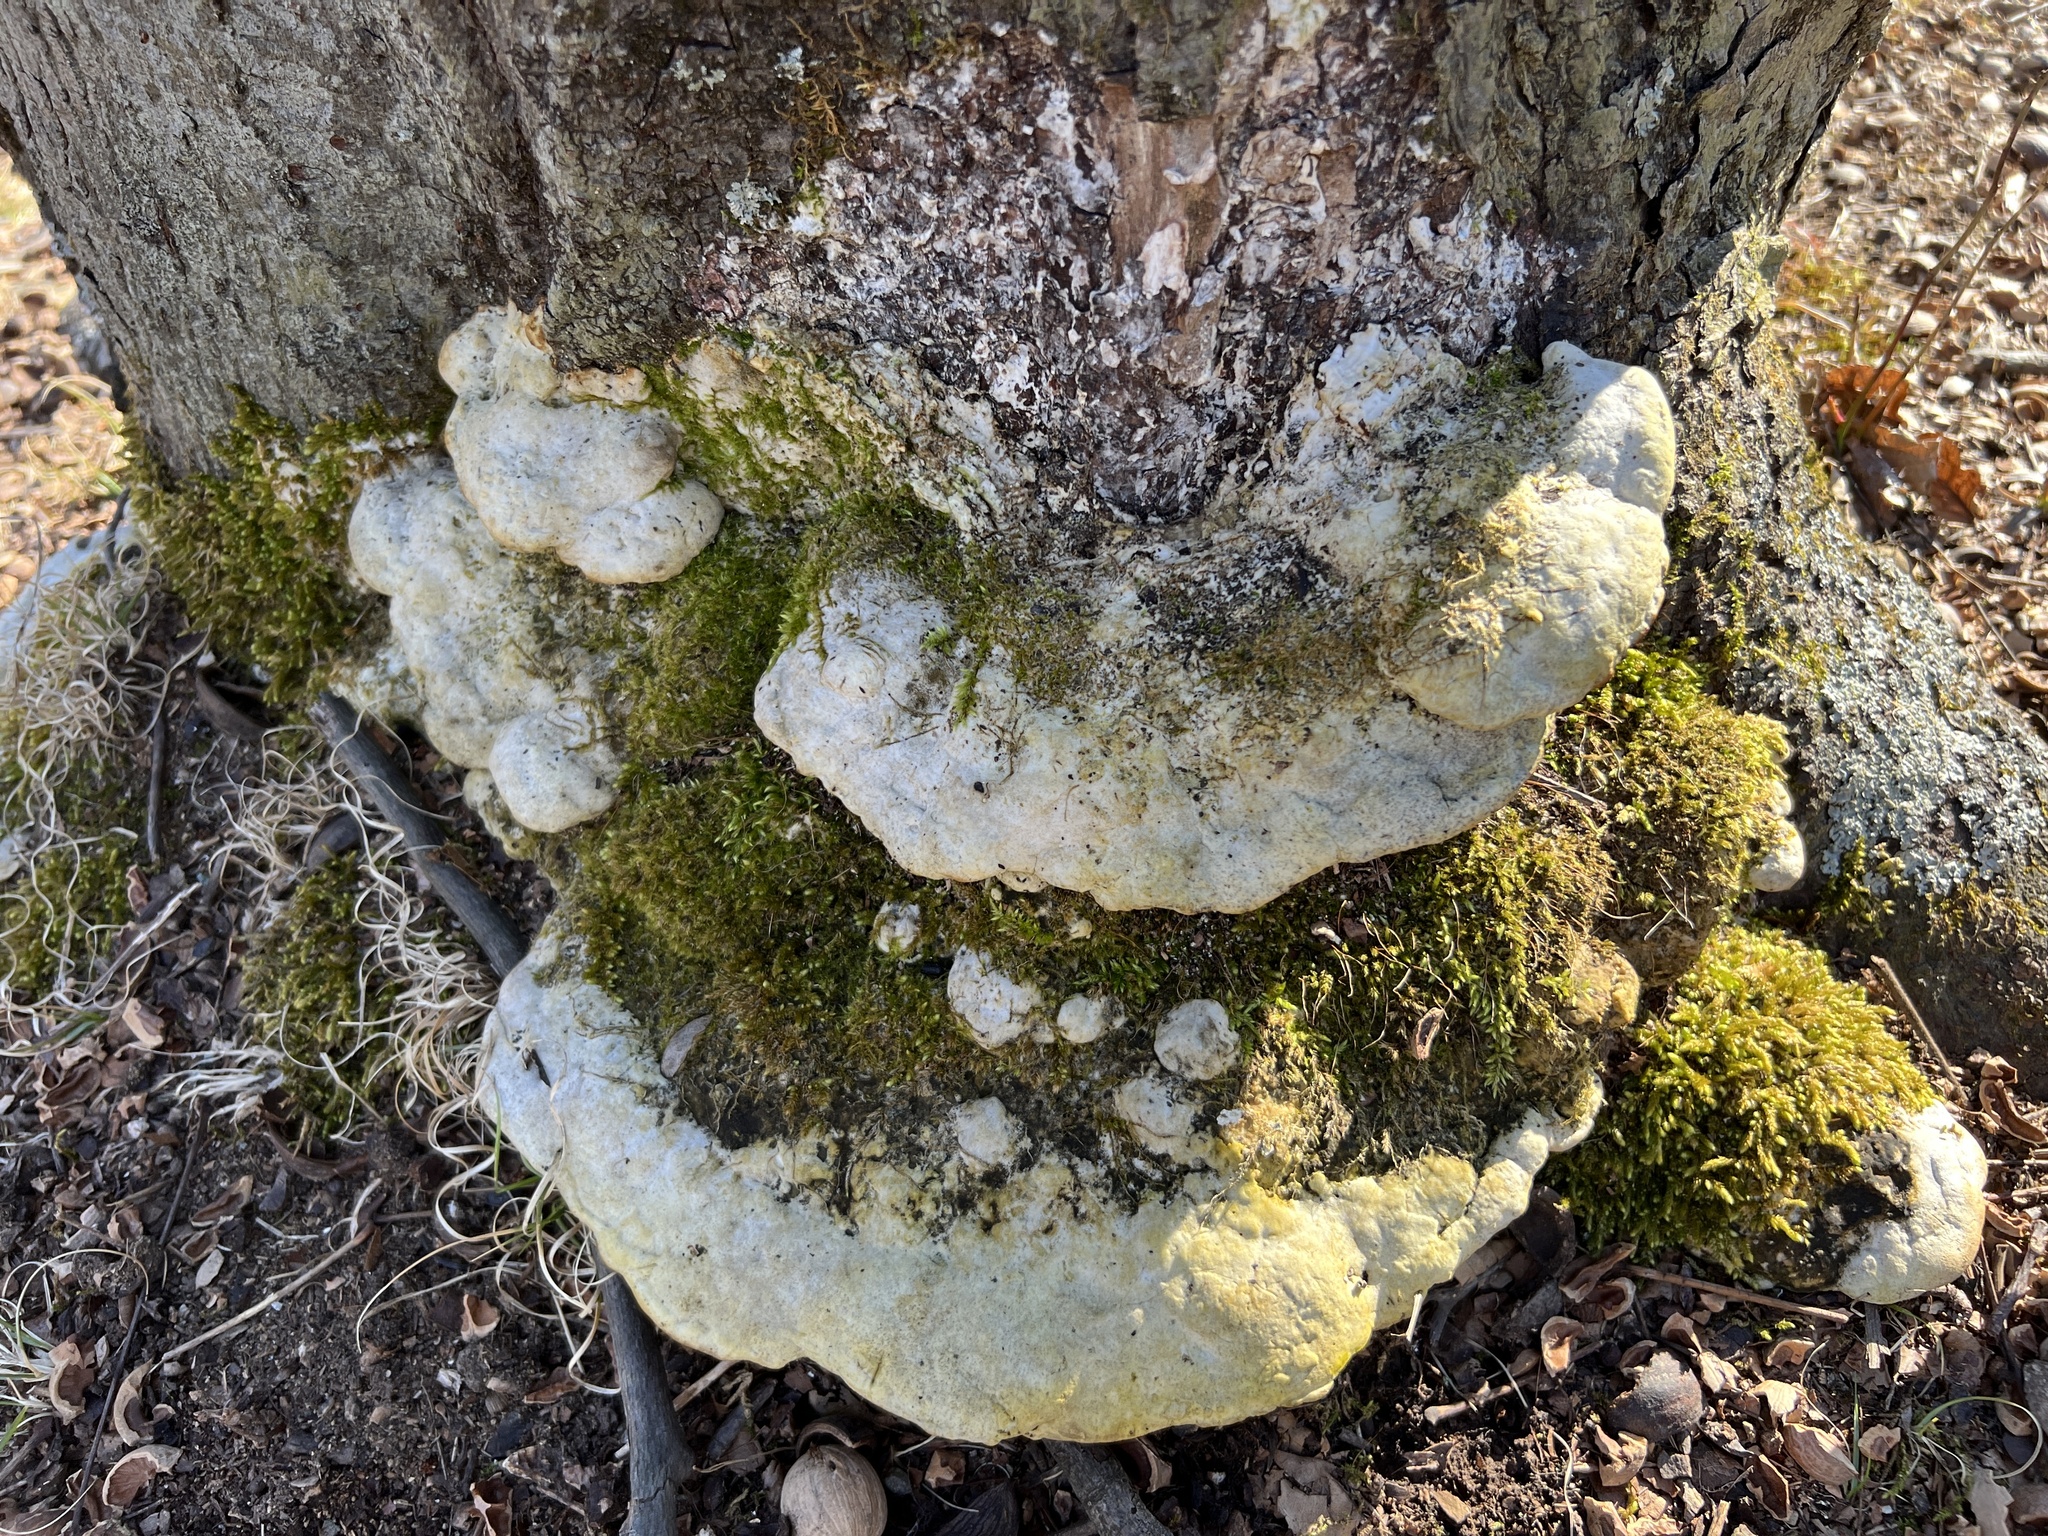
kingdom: Fungi
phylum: Basidiomycota
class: Agaricomycetes
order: Hymenochaetales
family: Oxyporaceae
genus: Oxyporus
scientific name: Oxyporus populinus
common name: Poplar bracket
